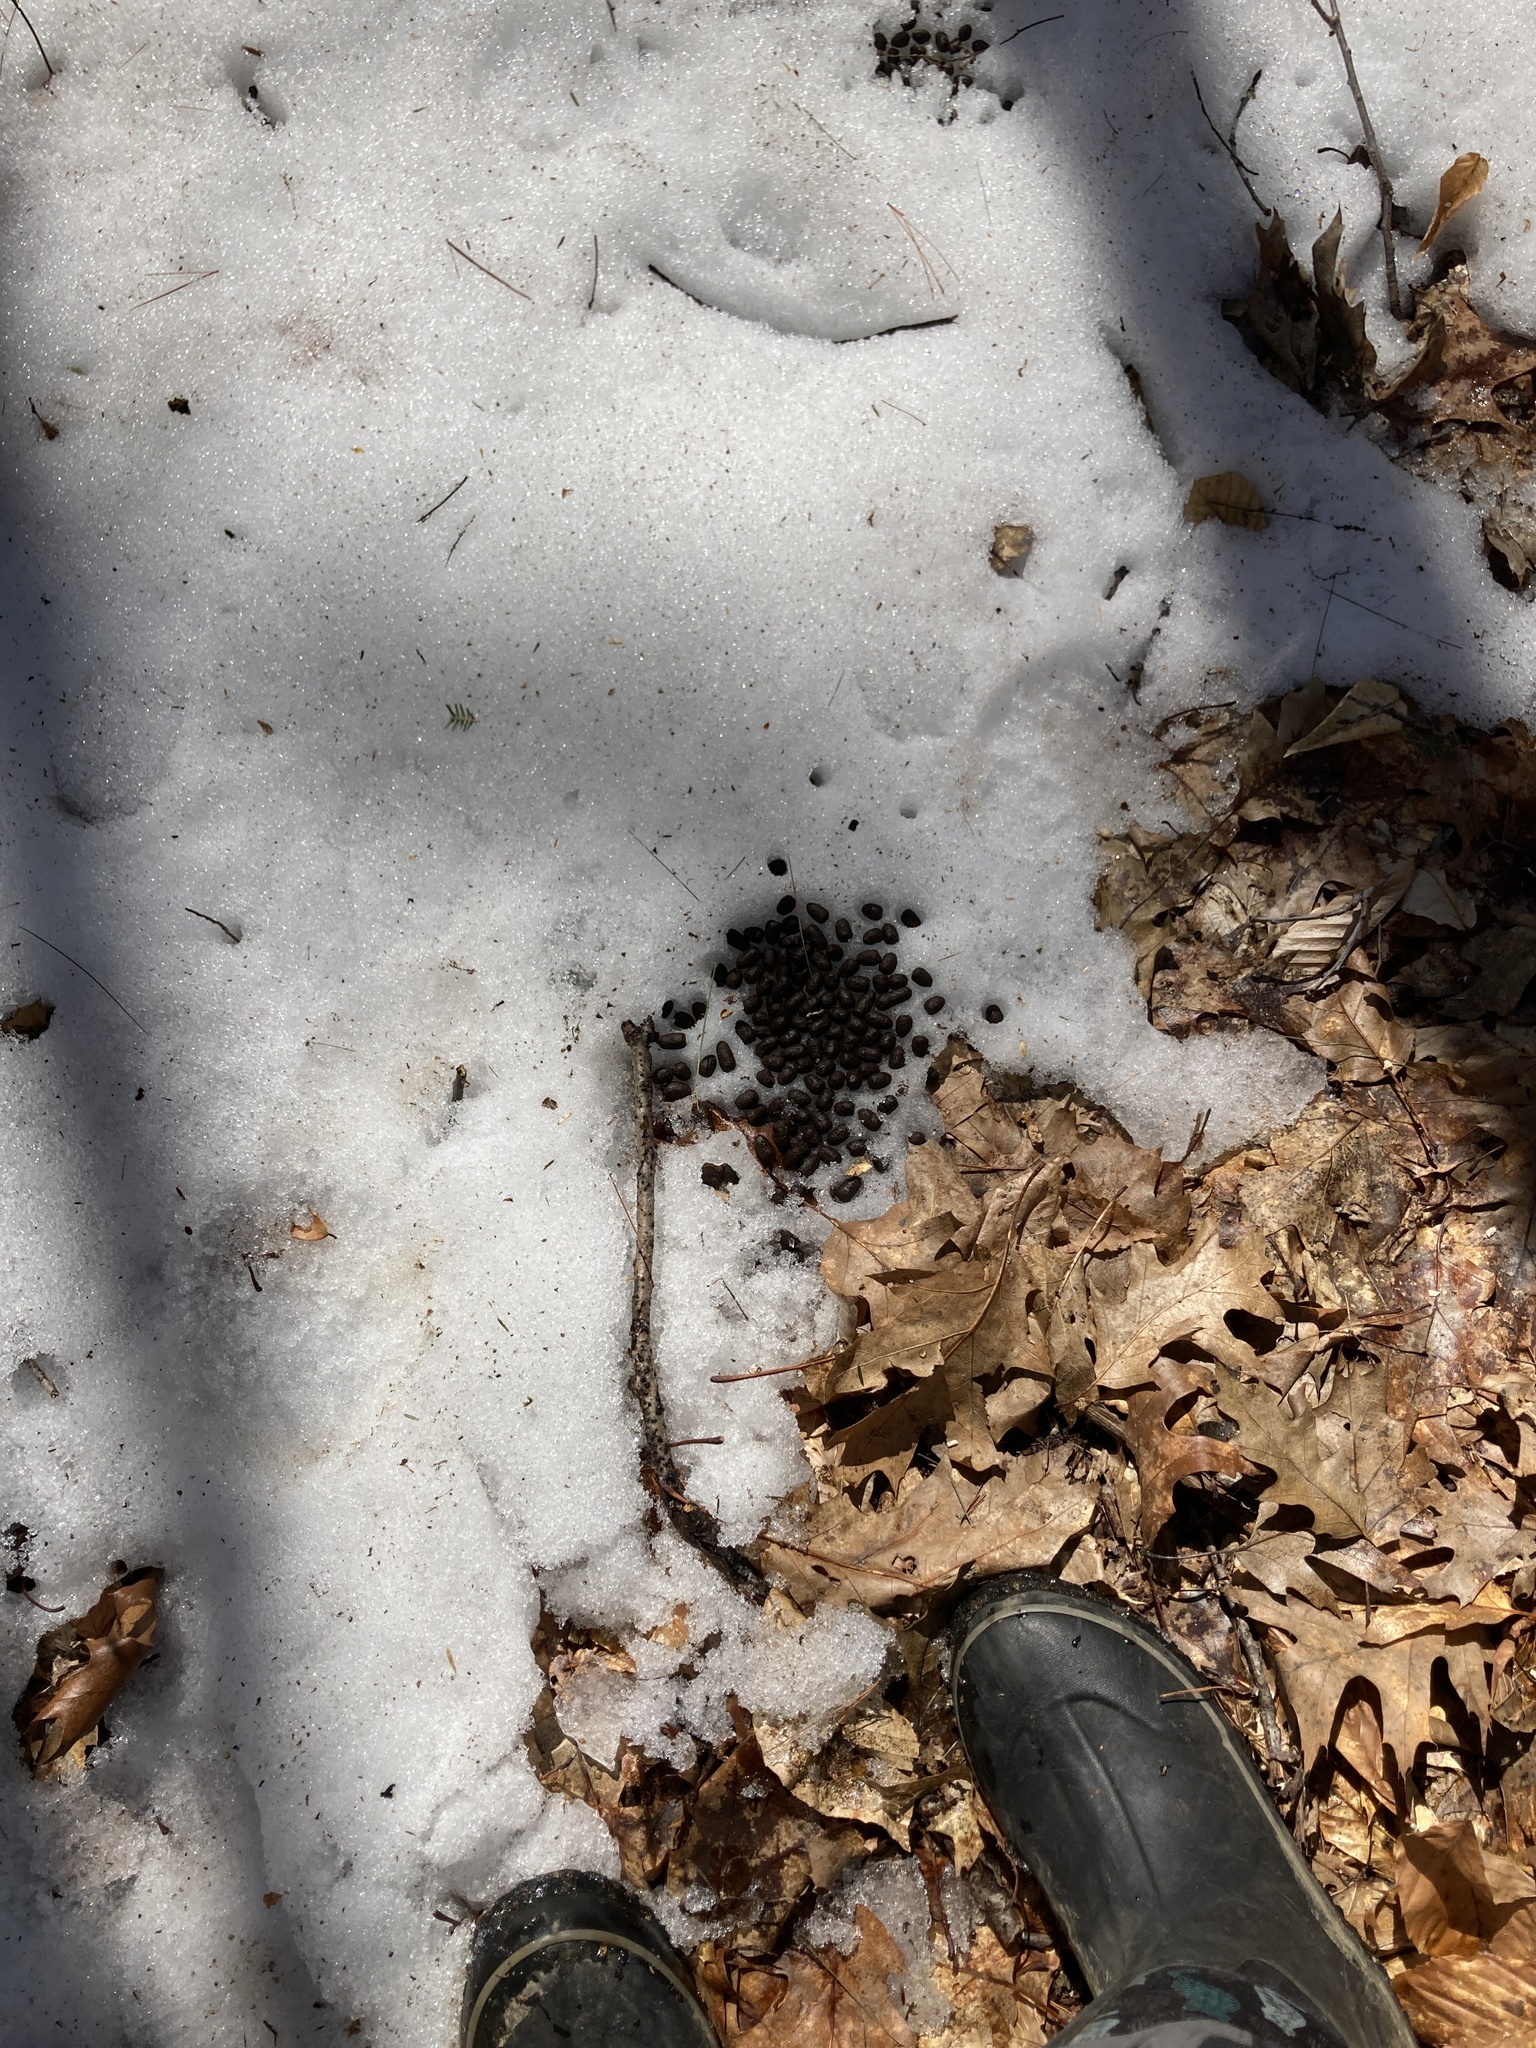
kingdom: Animalia
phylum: Chordata
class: Mammalia
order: Artiodactyla
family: Cervidae
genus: Odocoileus
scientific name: Odocoileus virginianus
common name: White-tailed deer
